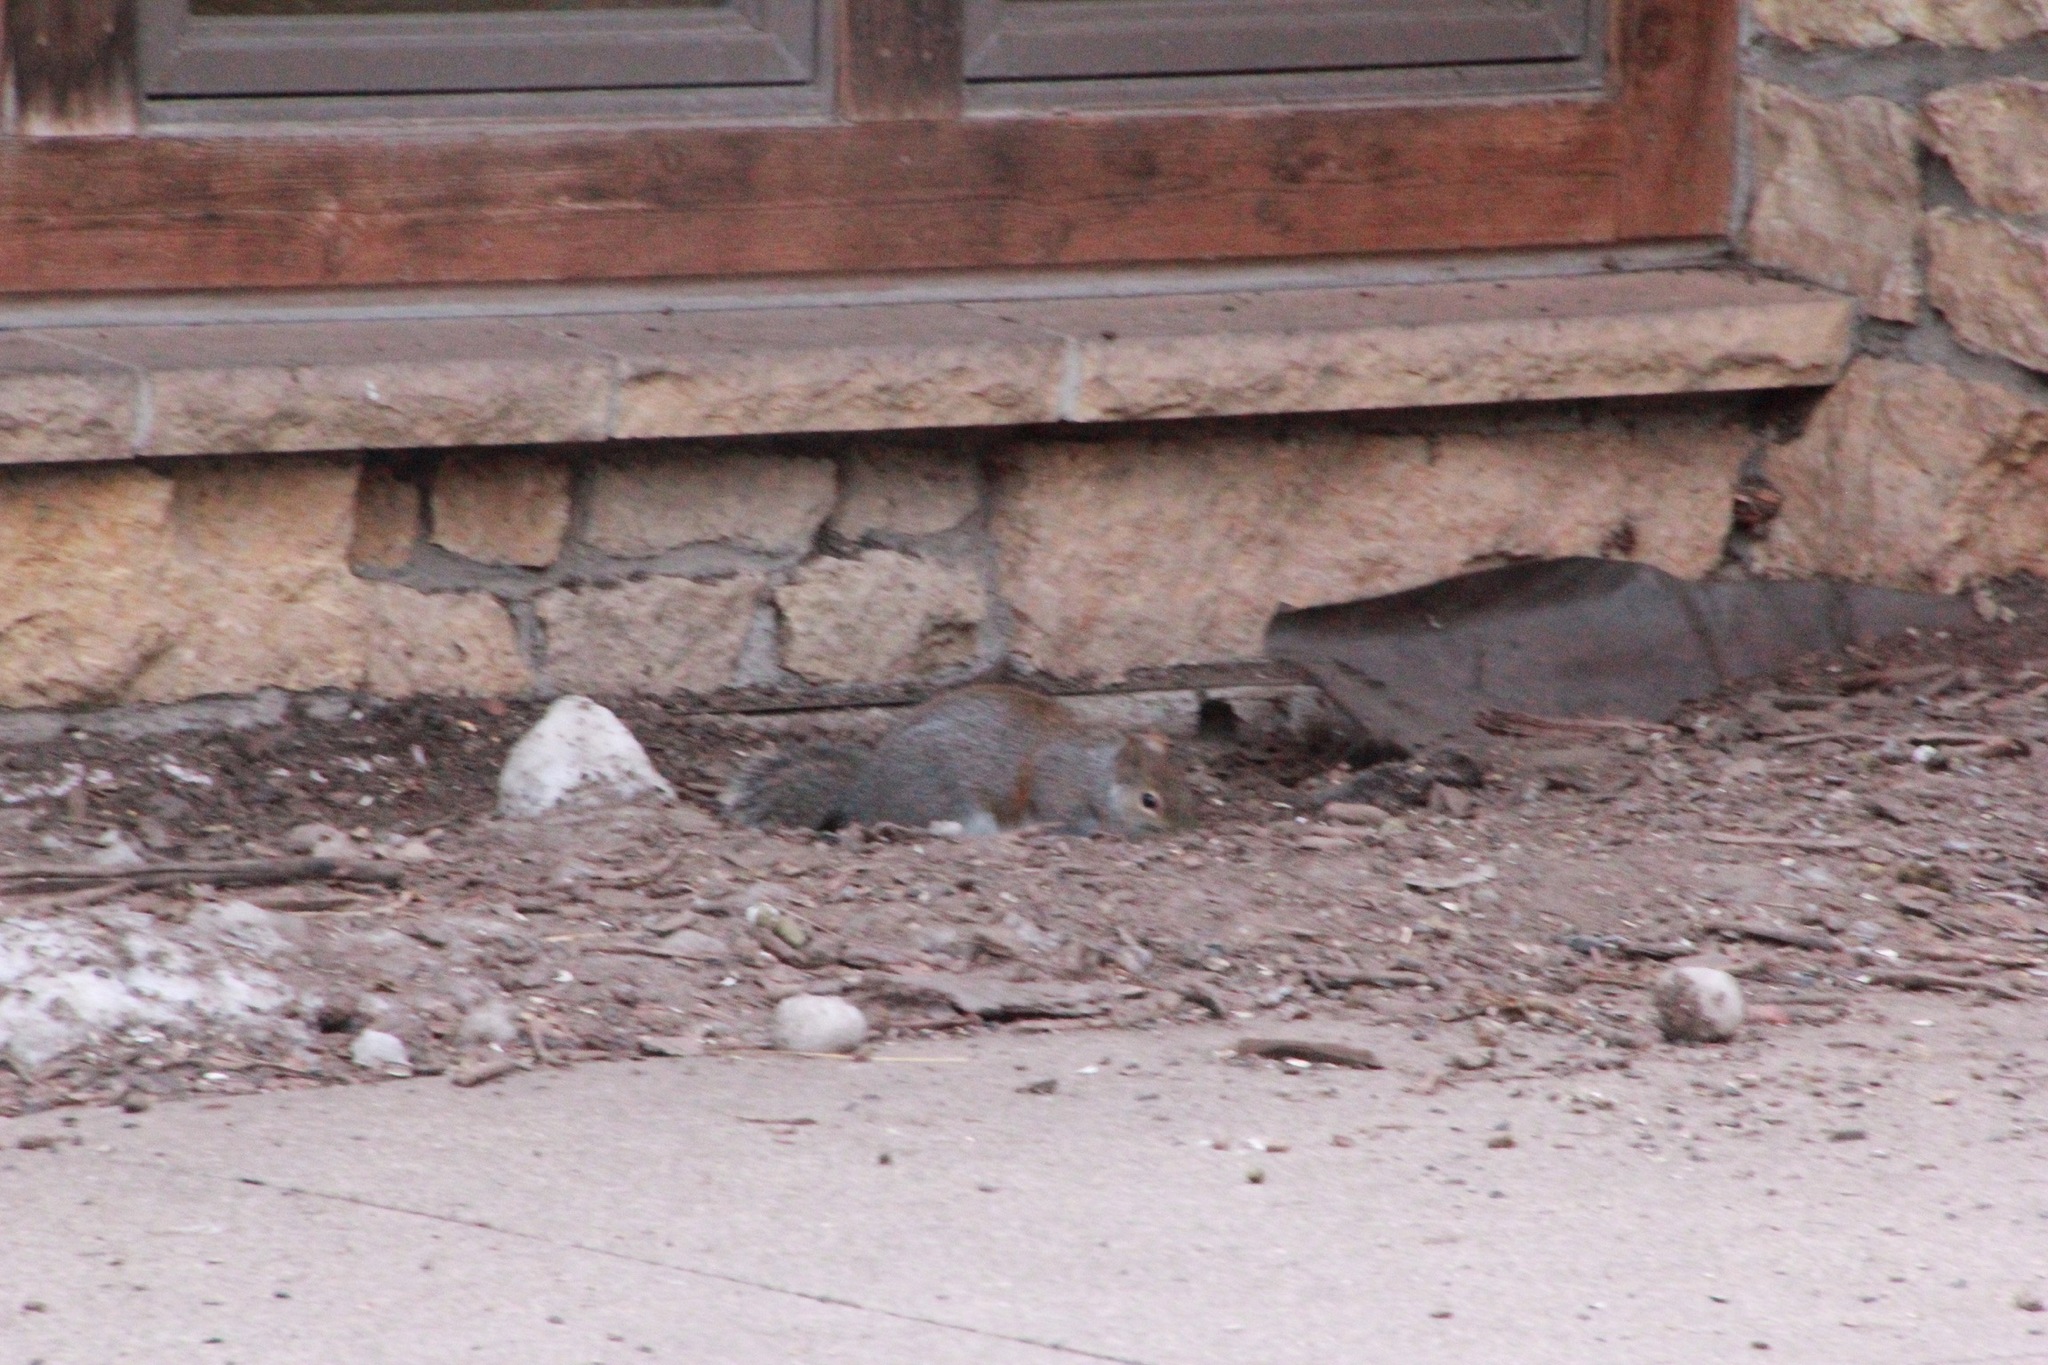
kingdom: Animalia
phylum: Chordata
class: Mammalia
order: Rodentia
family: Sciuridae
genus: Sciurus
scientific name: Sciurus carolinensis
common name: Eastern gray squirrel
